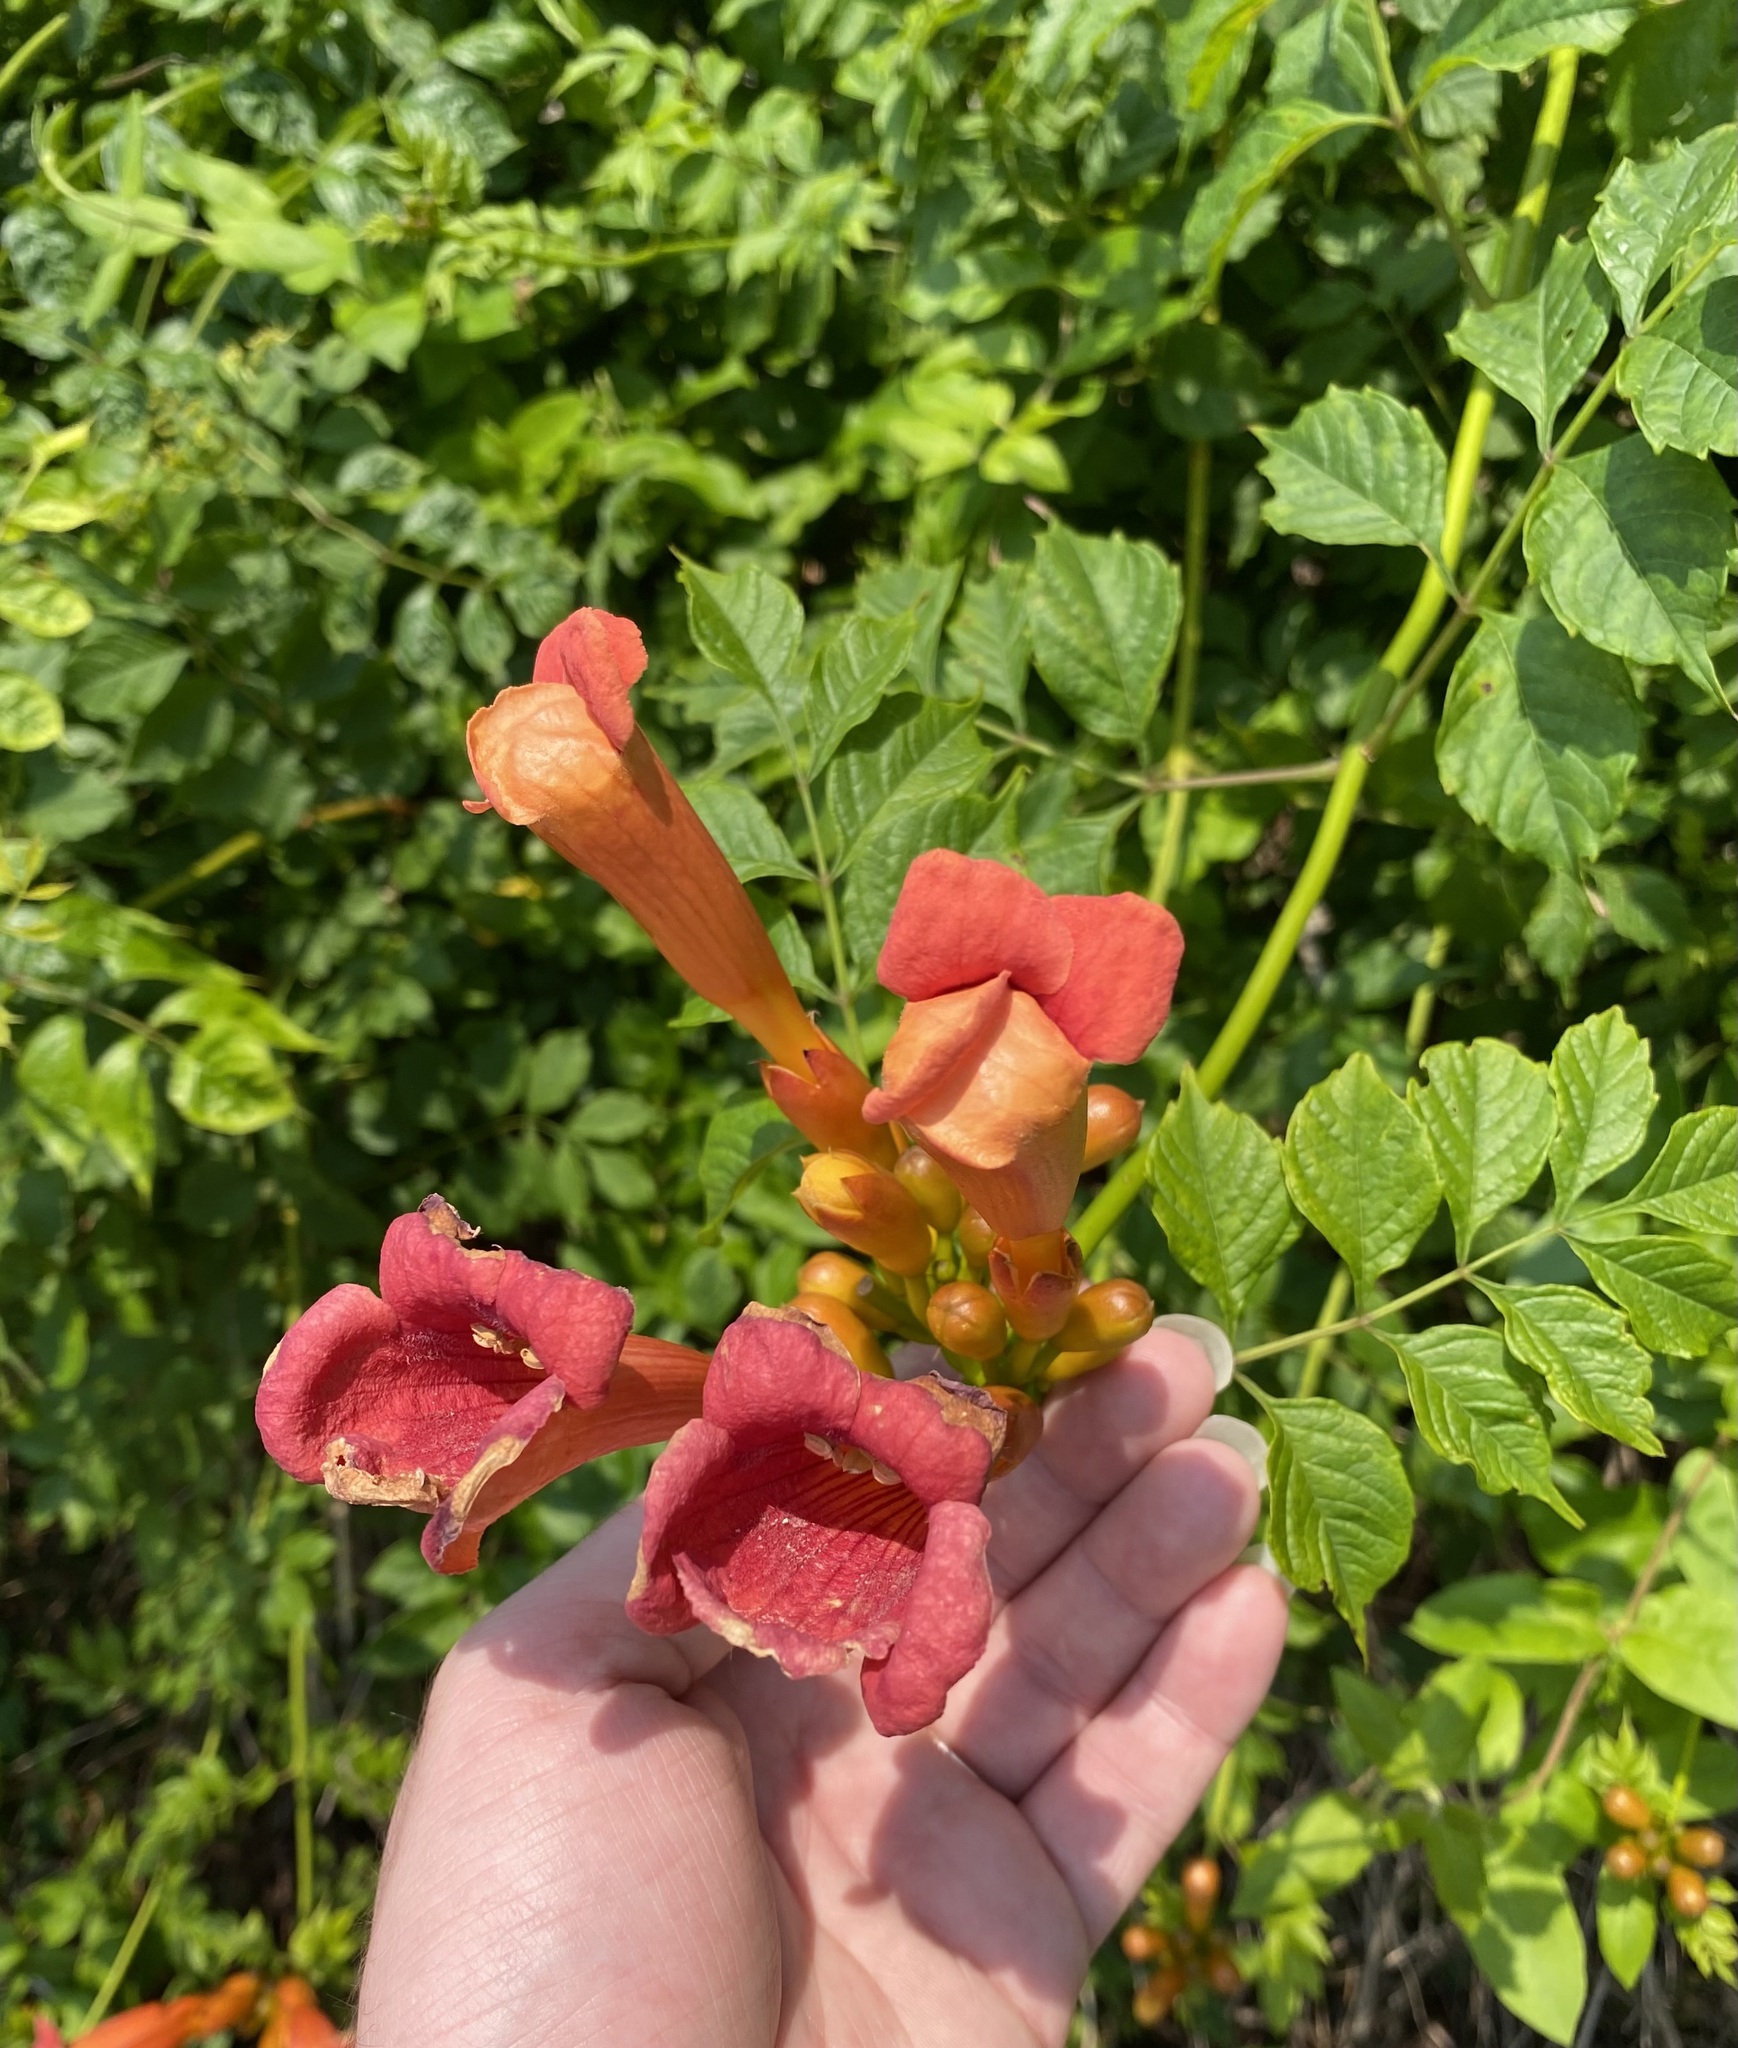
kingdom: Plantae
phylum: Tracheophyta
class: Magnoliopsida
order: Lamiales
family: Bignoniaceae
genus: Campsis
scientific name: Campsis radicans
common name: Trumpet-creeper
